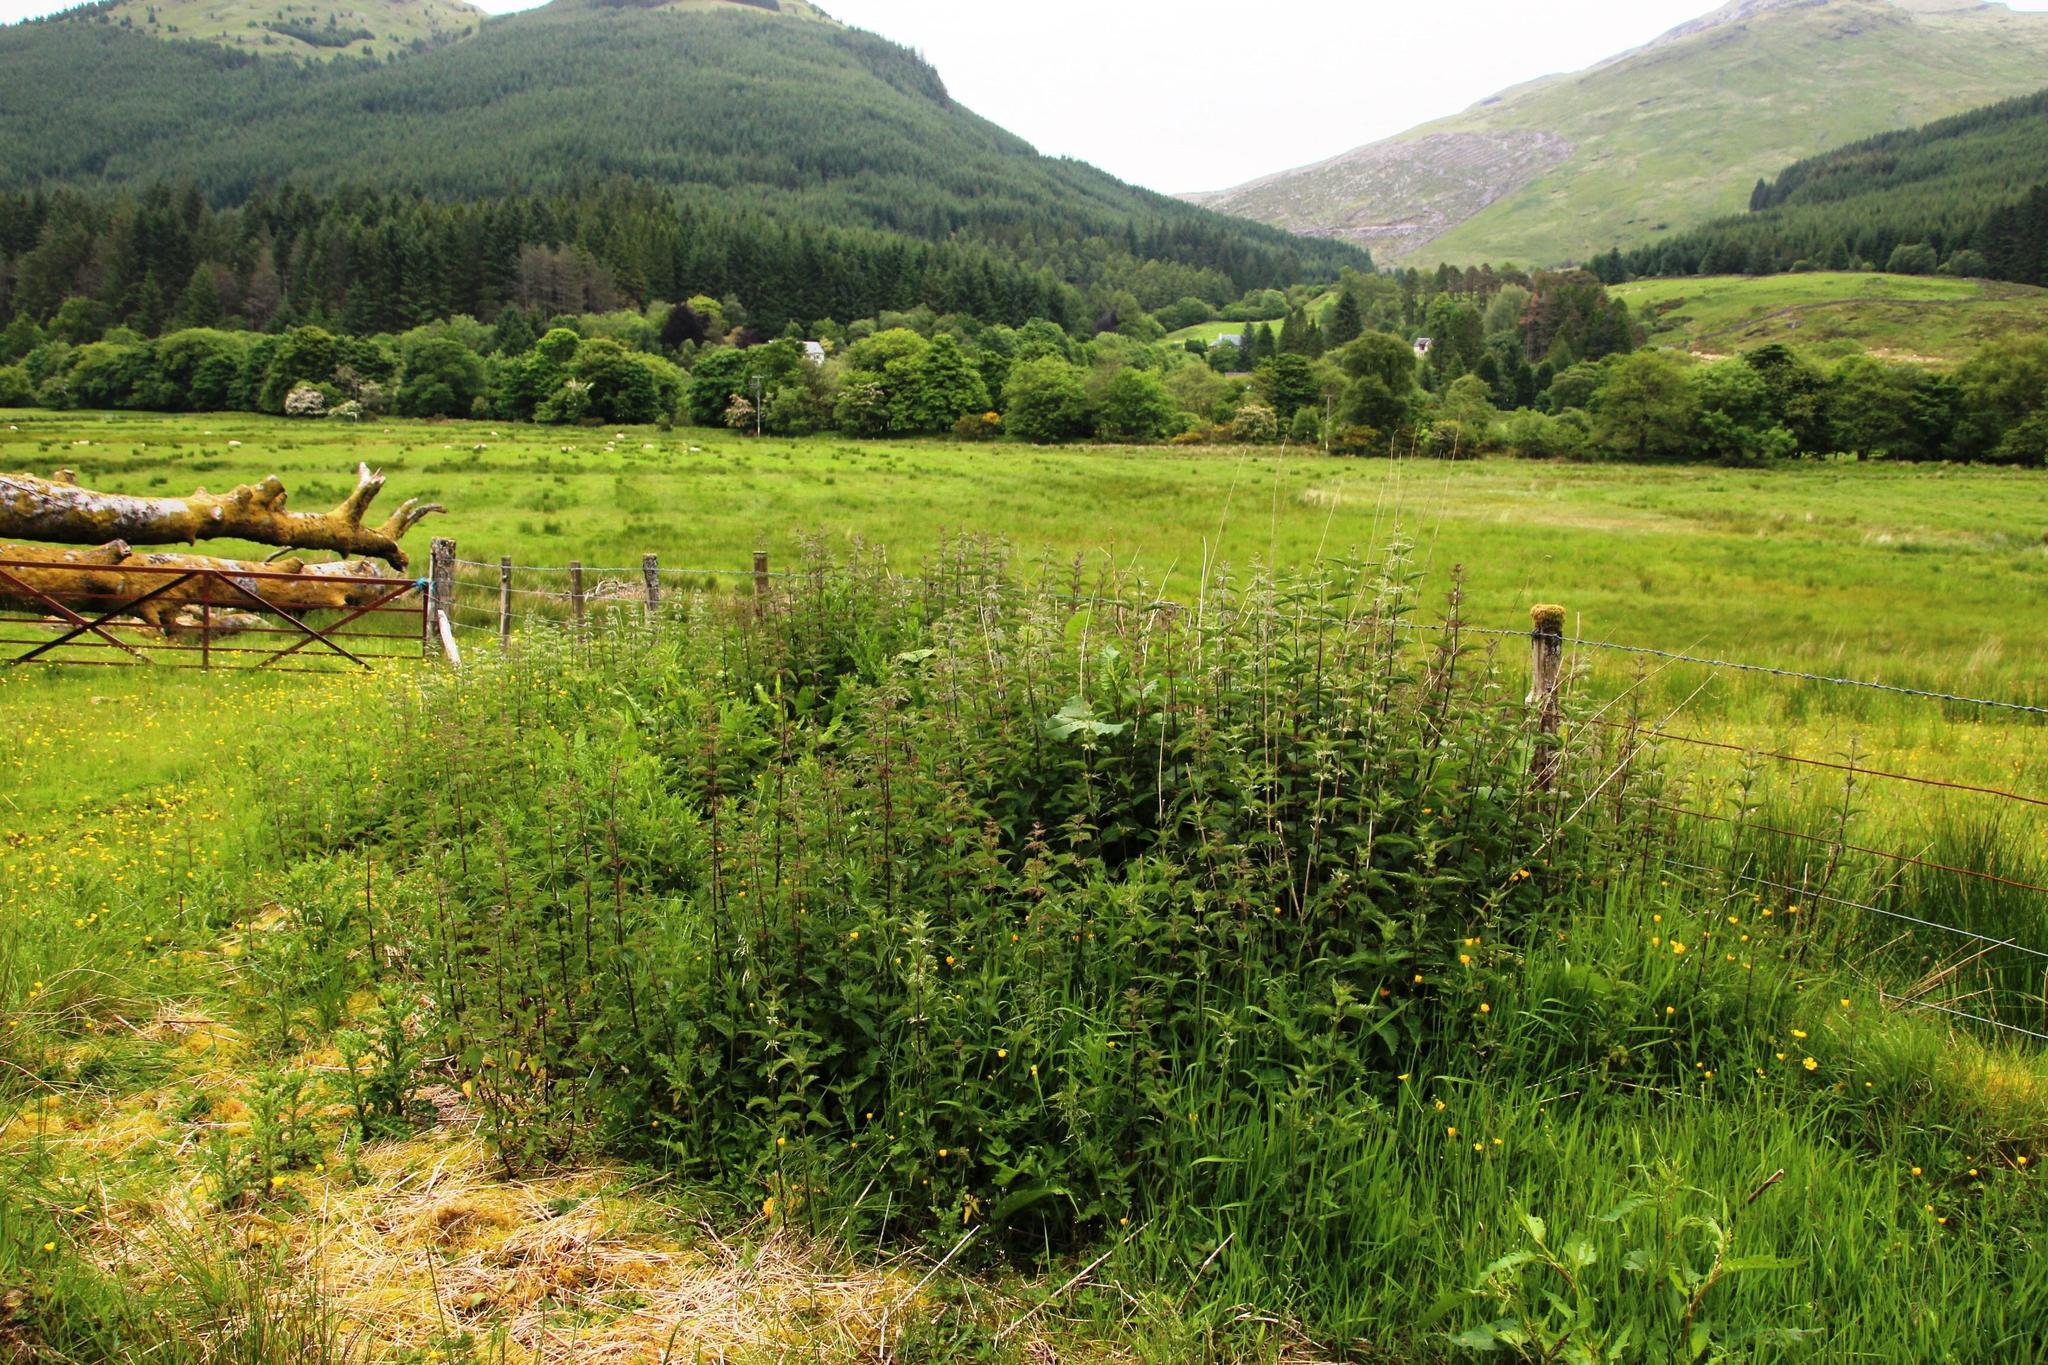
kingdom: Plantae
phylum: Tracheophyta
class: Magnoliopsida
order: Rosales
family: Urticaceae
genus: Urtica
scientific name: Urtica dioica
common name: Common nettle
